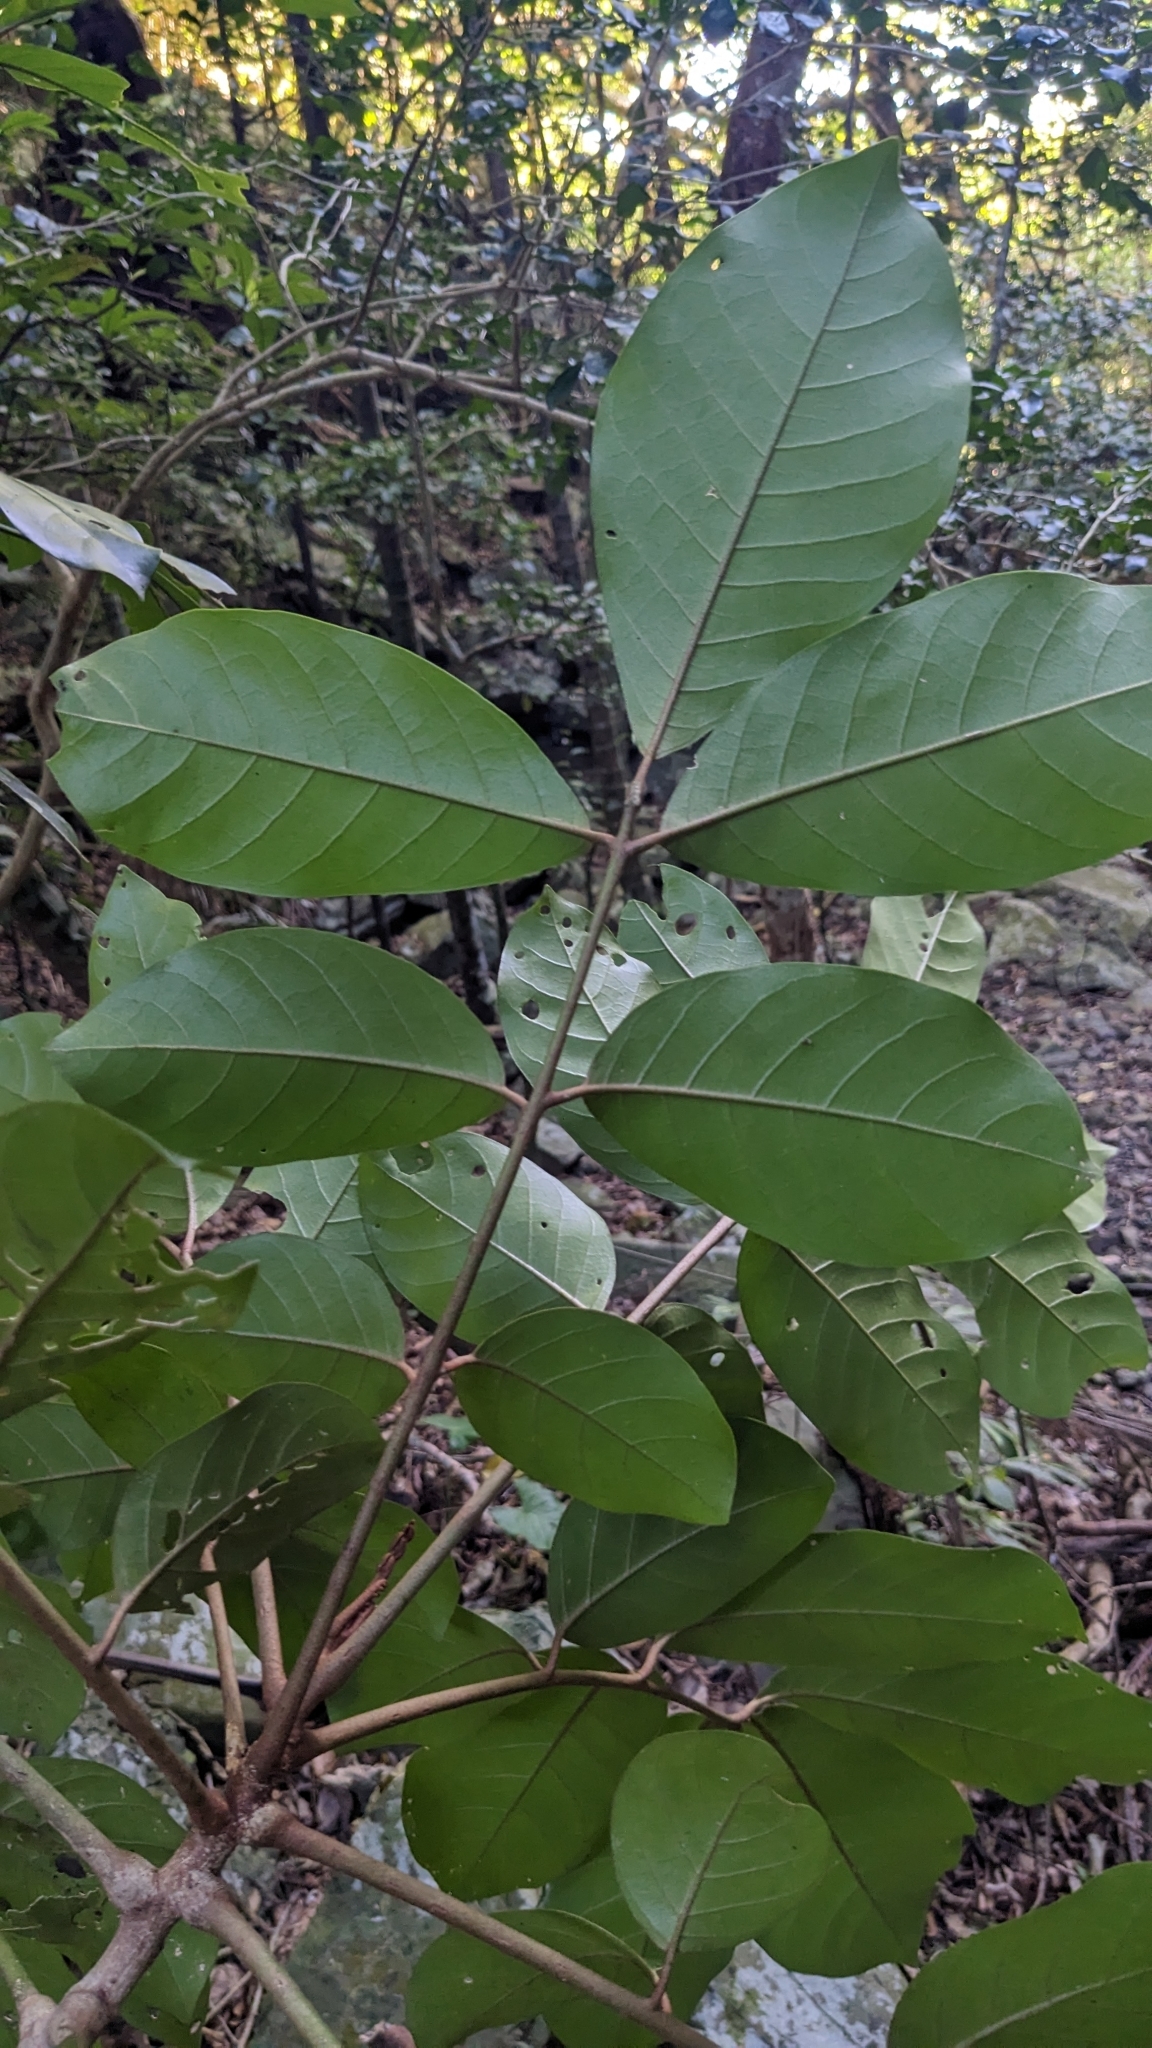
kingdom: Plantae
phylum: Tracheophyta
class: Magnoliopsida
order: Sapindales
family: Meliaceae
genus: Aglaia
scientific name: Aglaia rimosa
